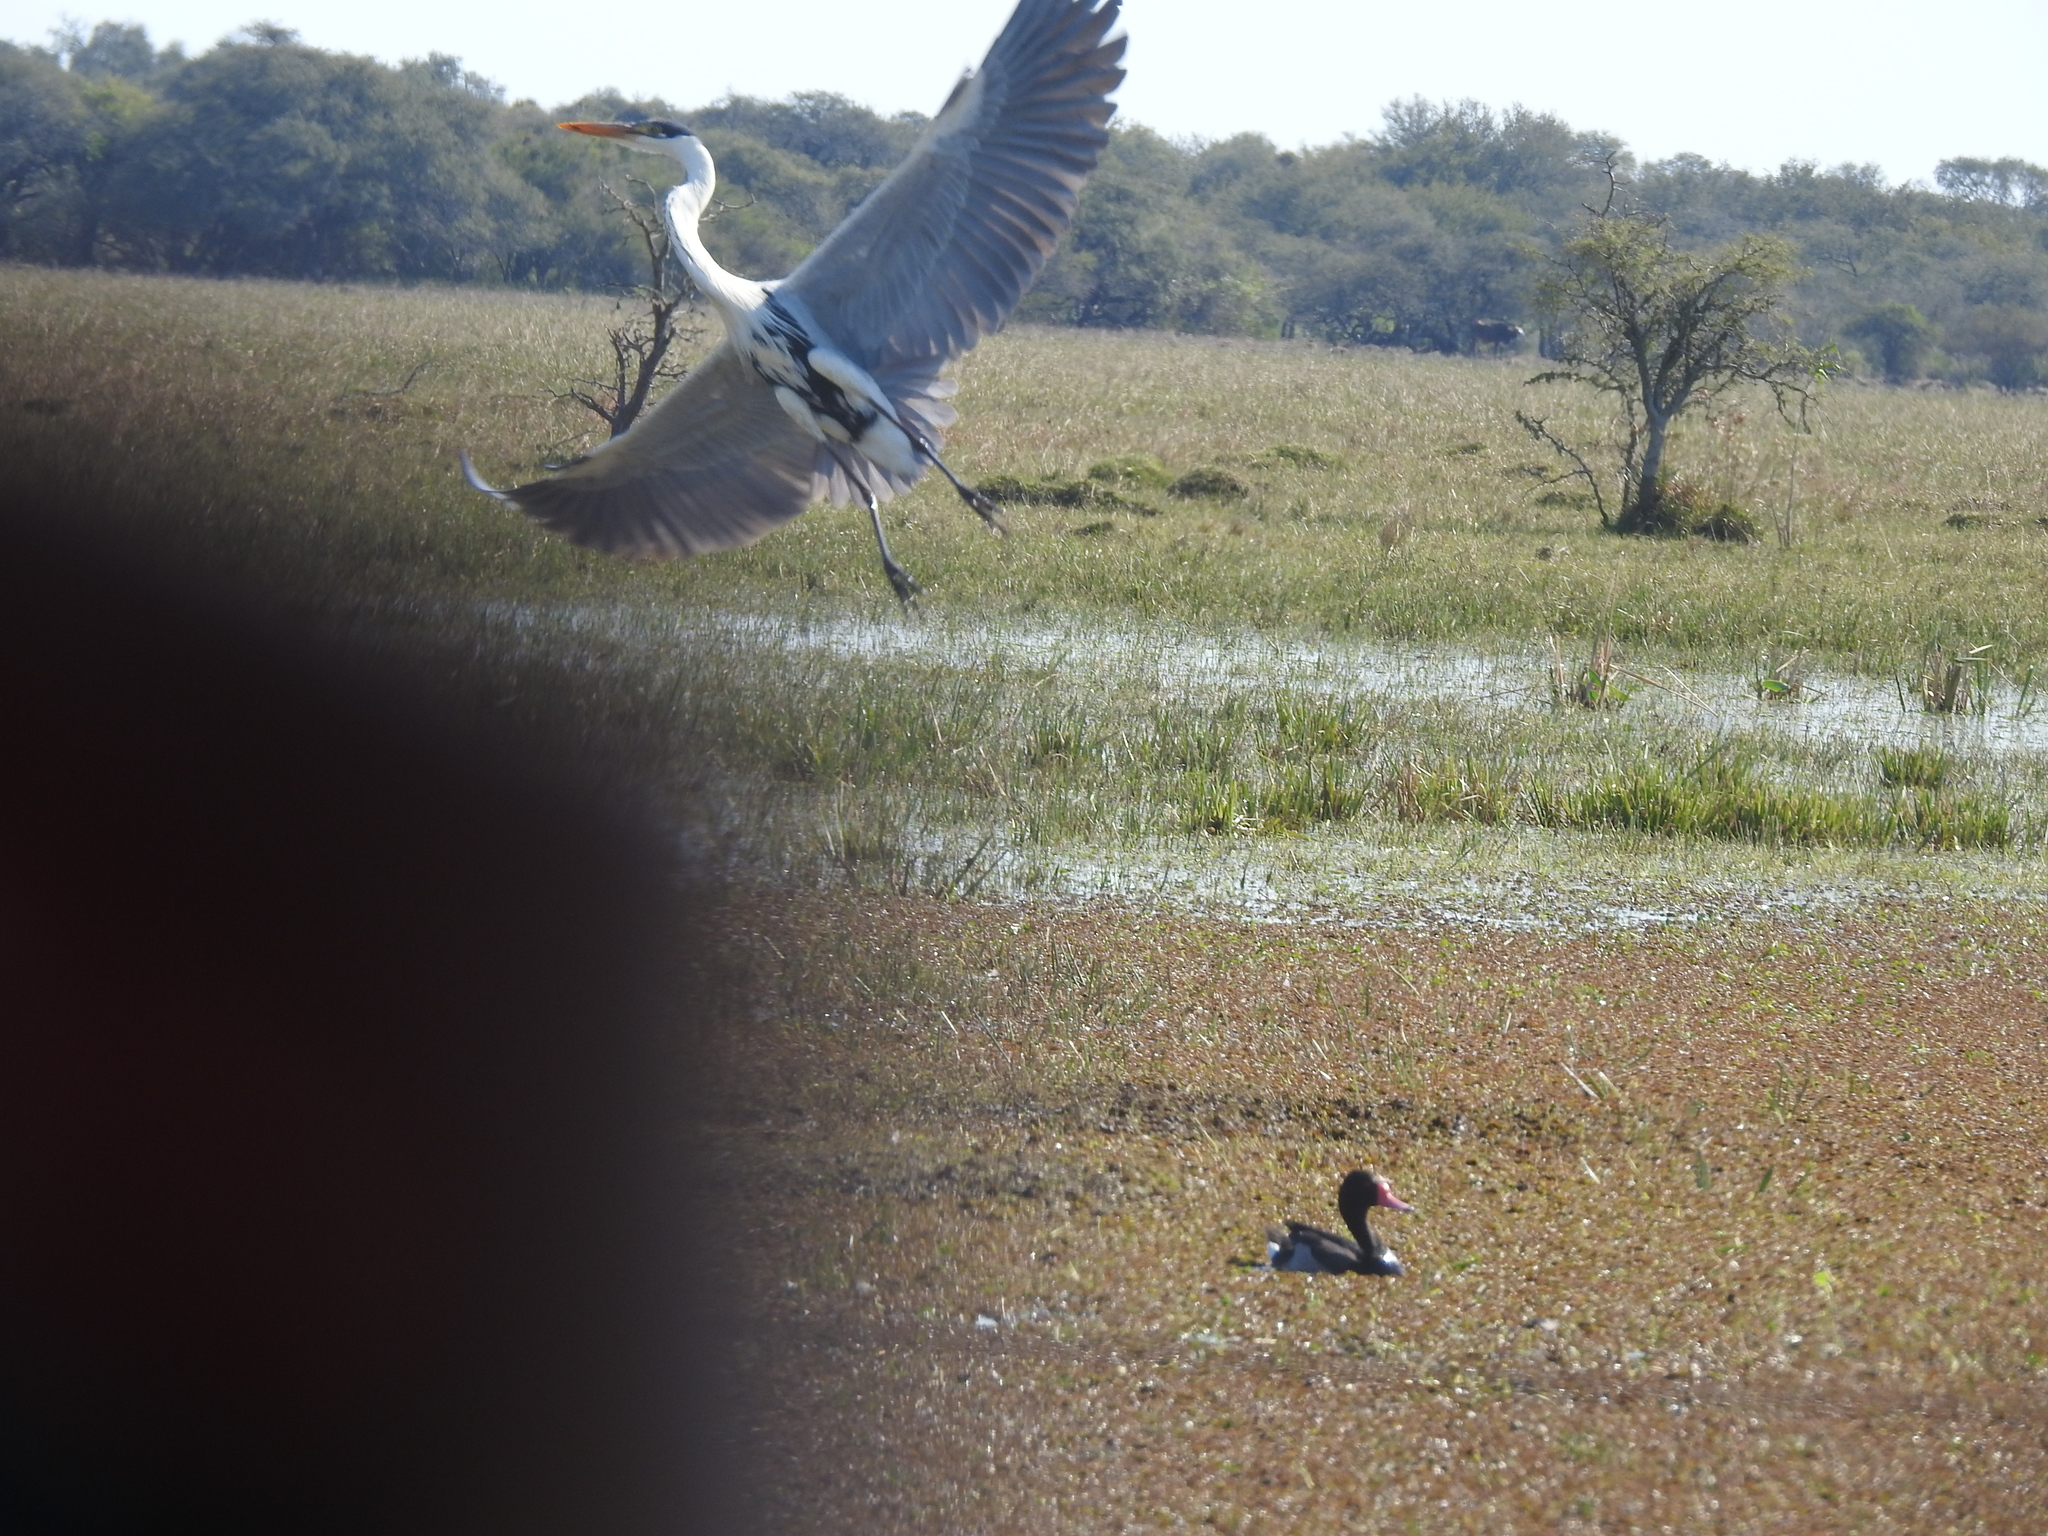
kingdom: Animalia
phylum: Chordata
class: Aves
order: Anseriformes
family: Anatidae
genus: Netta
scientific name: Netta peposaca
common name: Rosy-billed pochard
